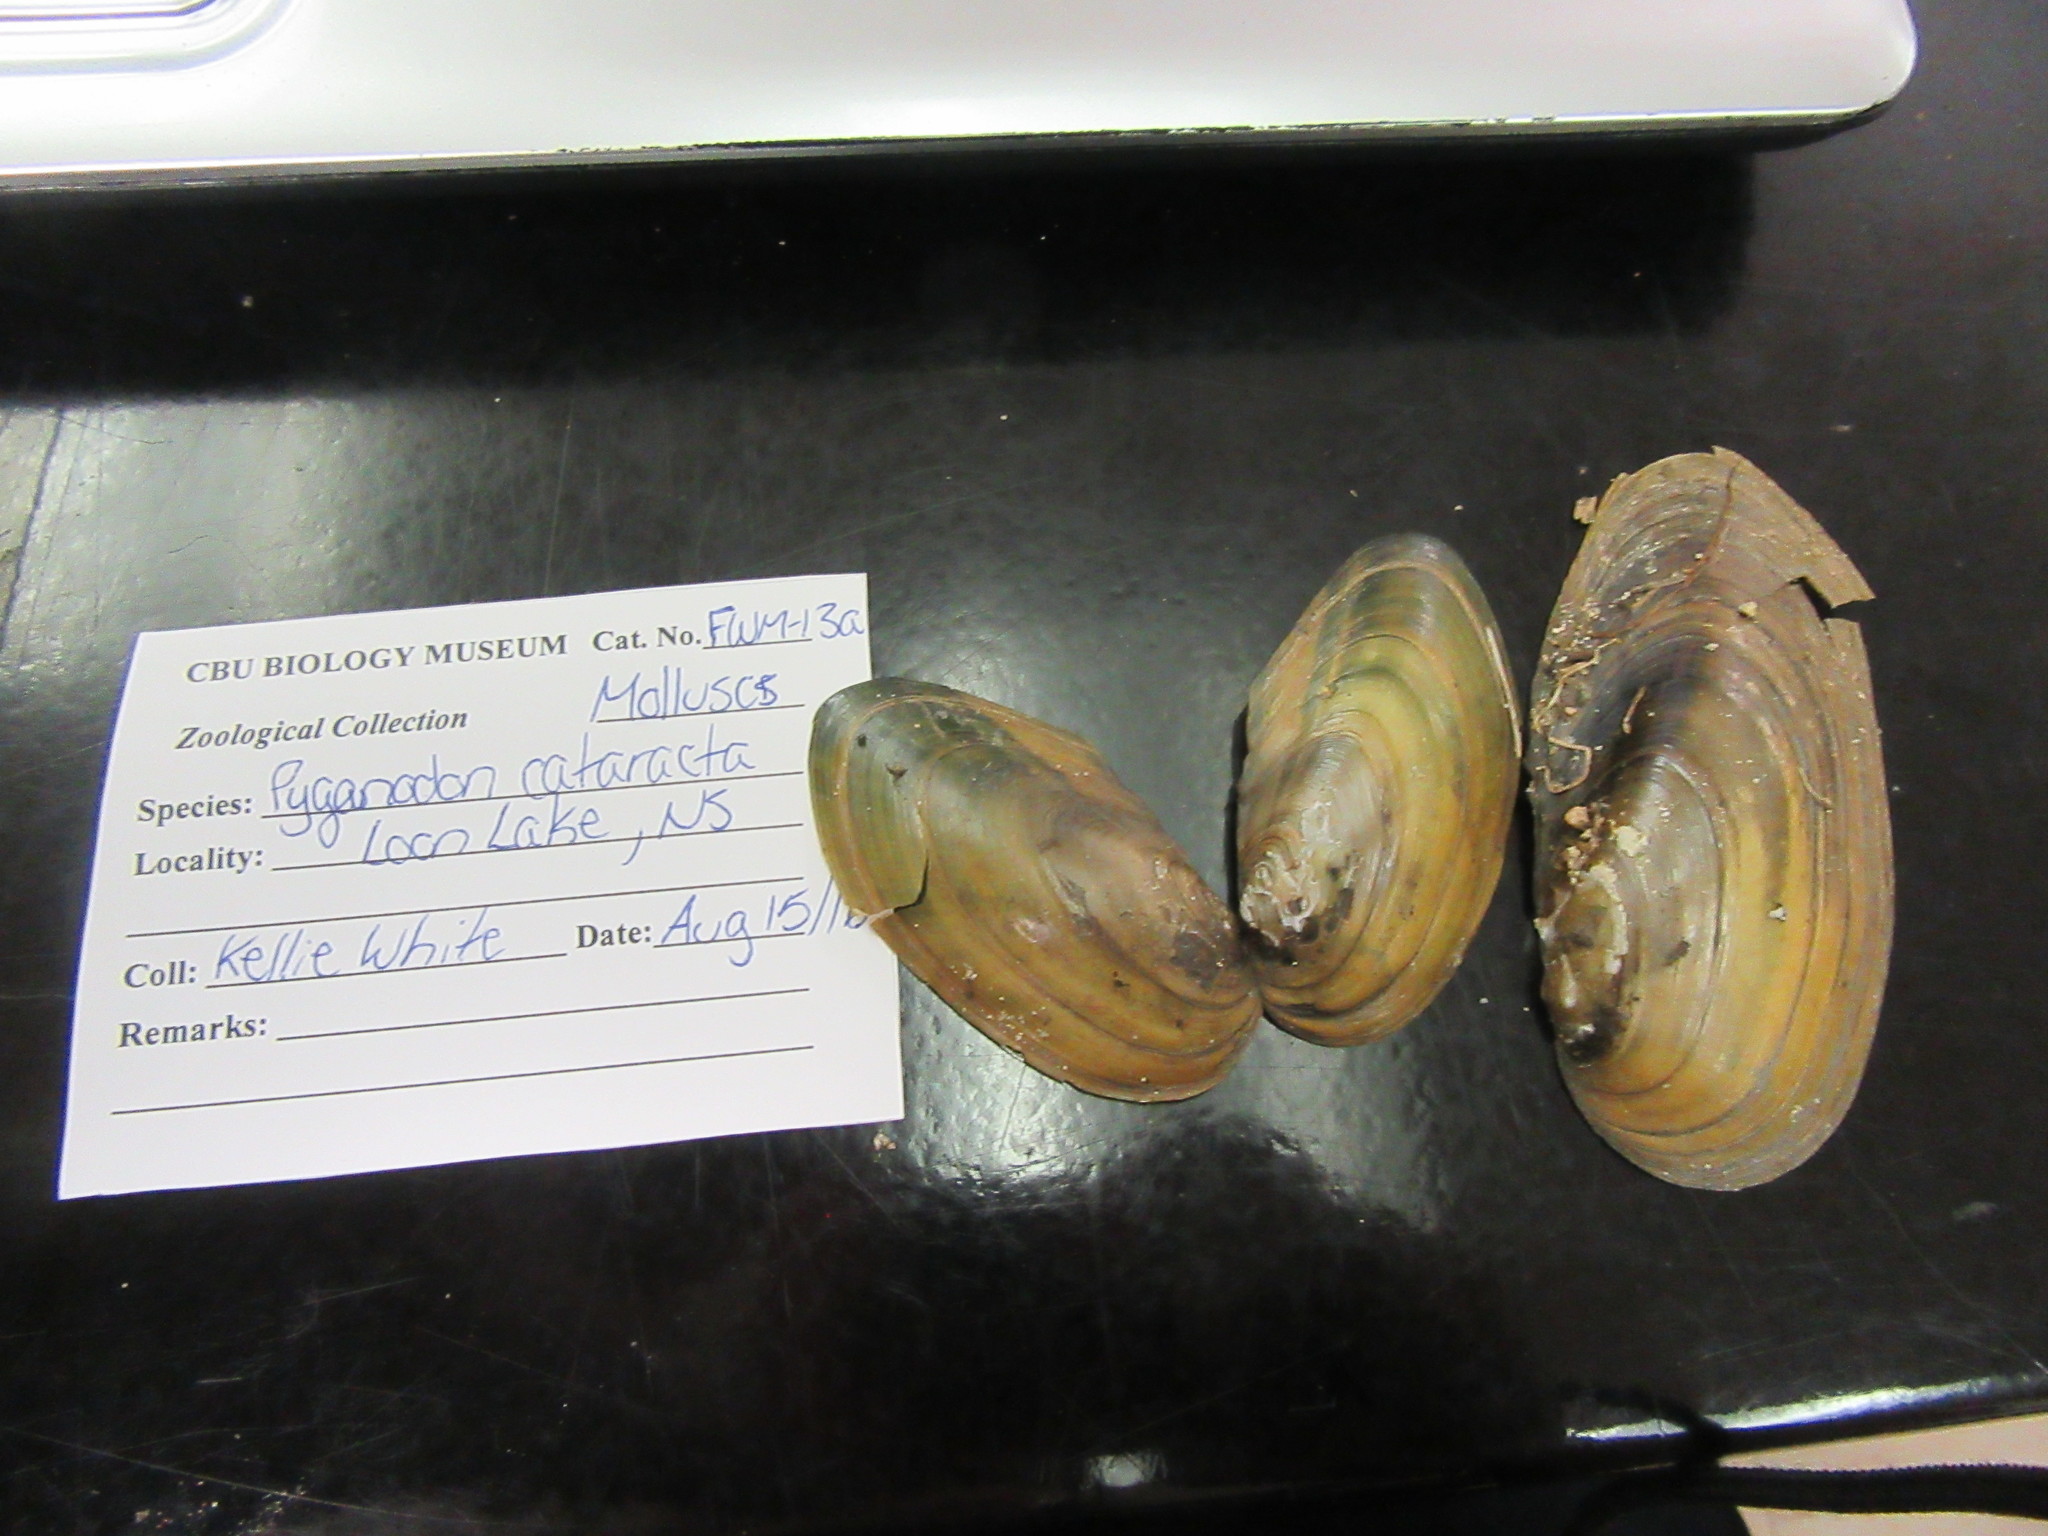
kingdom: Animalia
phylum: Mollusca
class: Bivalvia
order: Unionida
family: Unionidae
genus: Pyganodon
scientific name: Pyganodon cataracta
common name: Eastern floater
